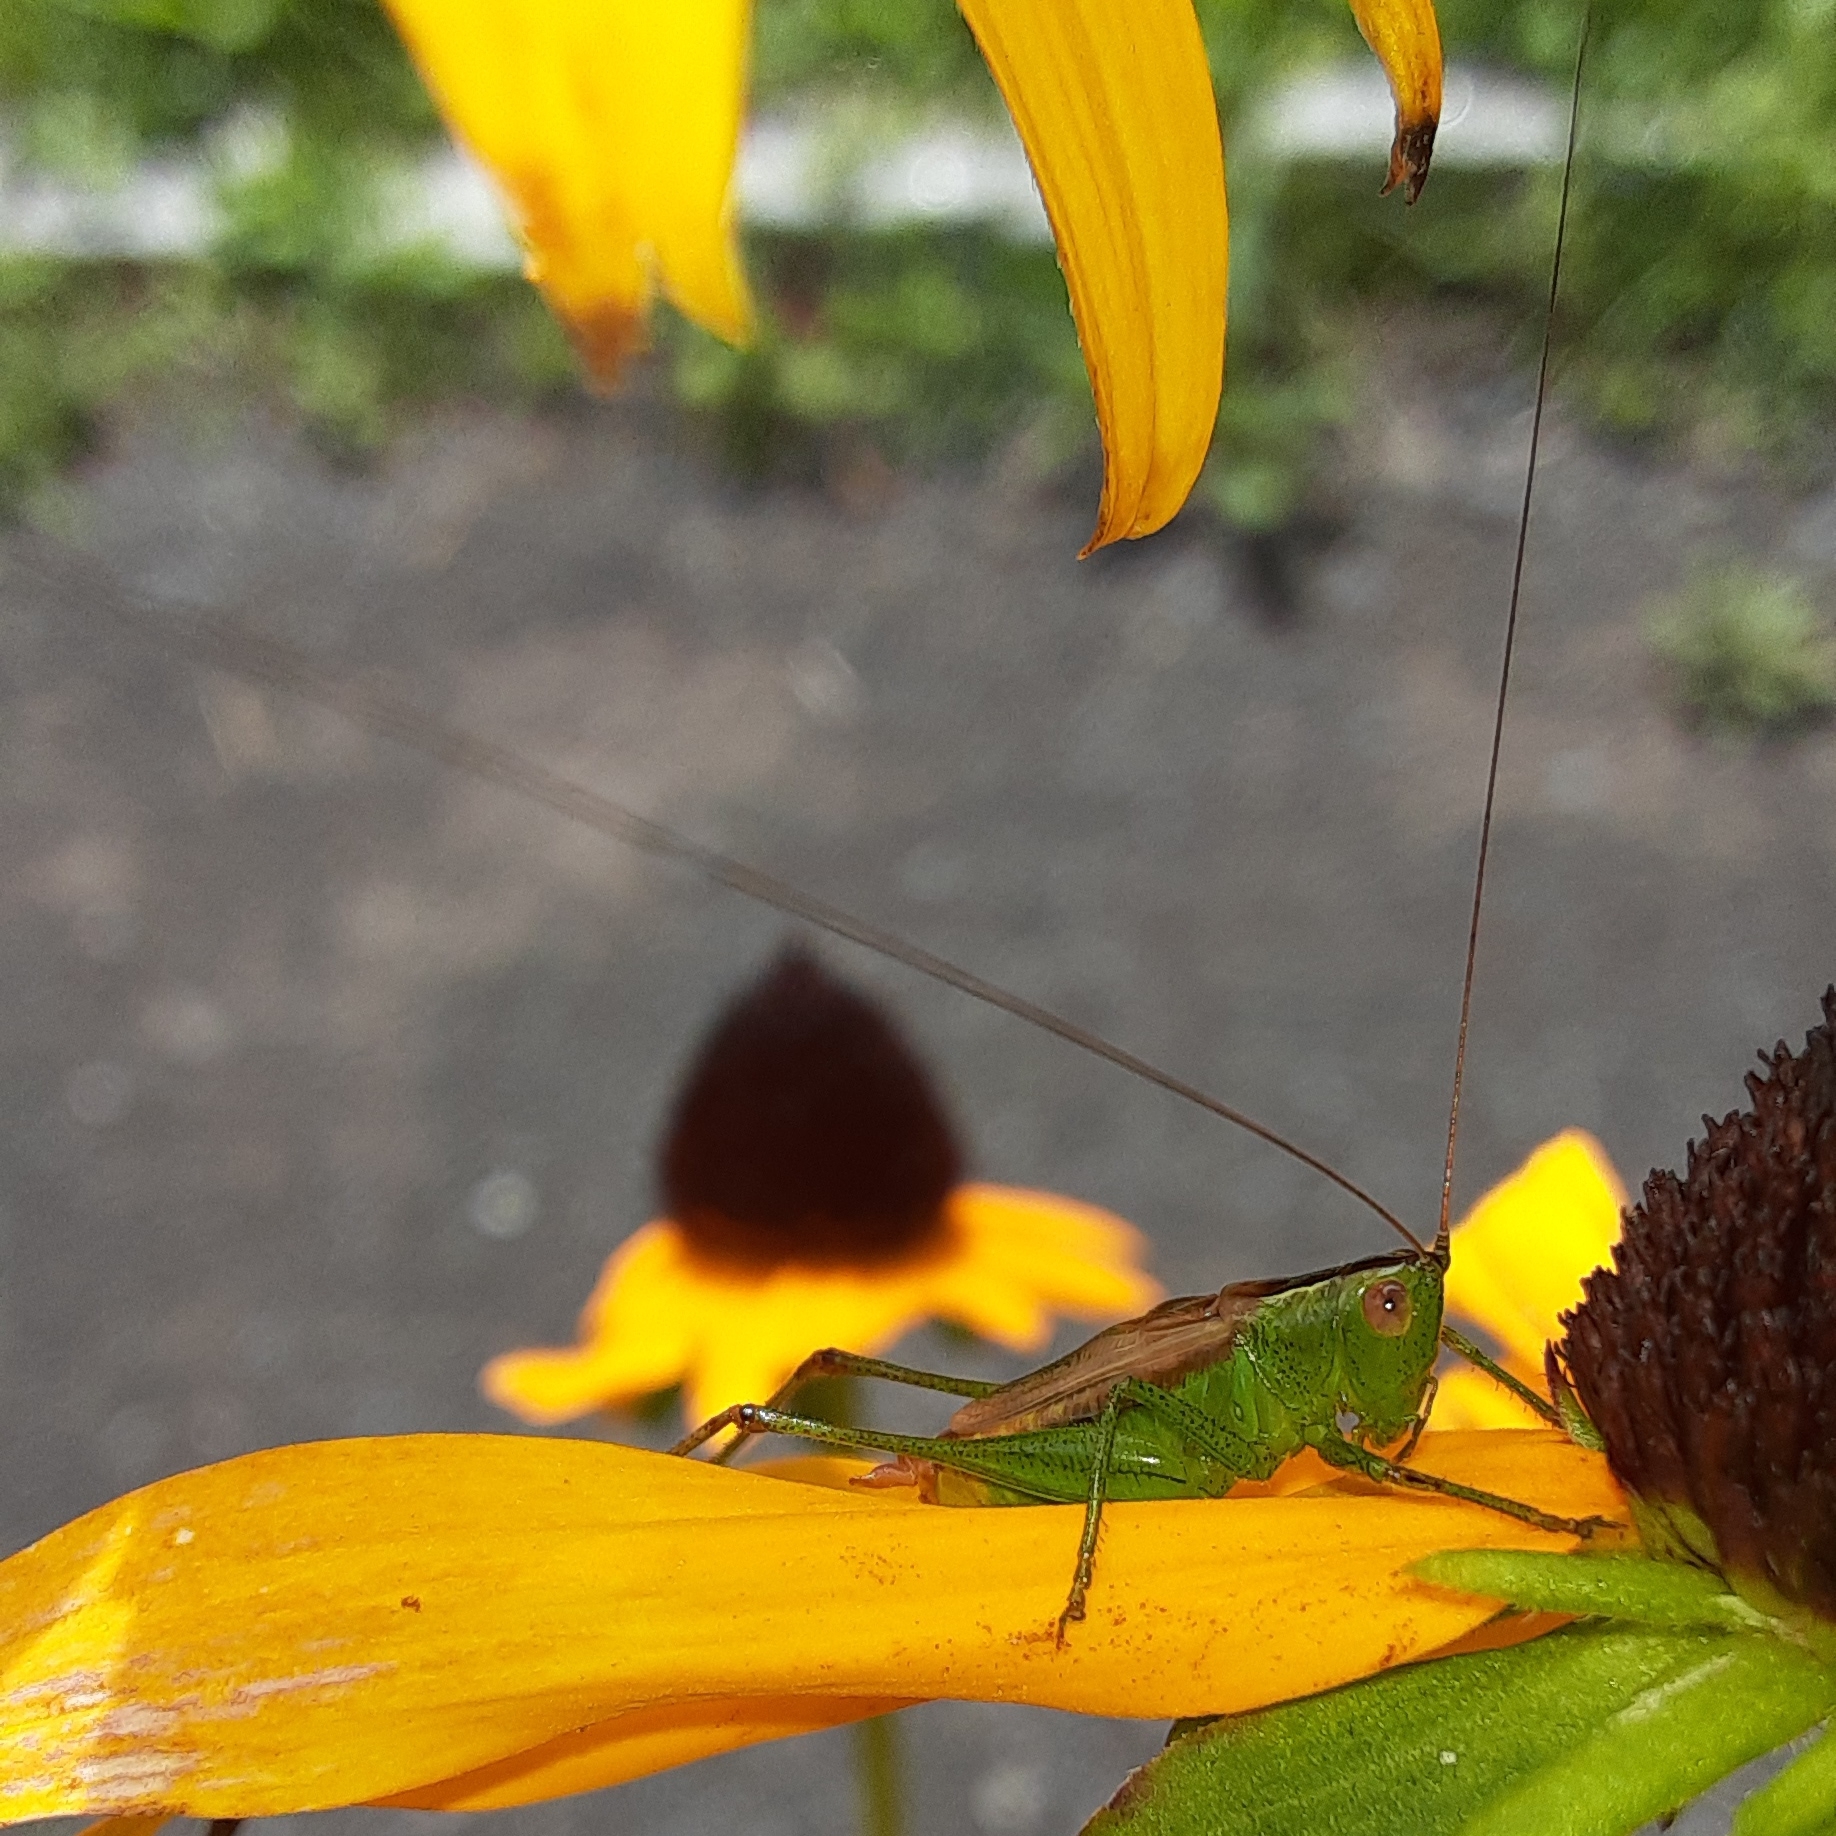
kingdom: Animalia
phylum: Arthropoda
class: Insecta
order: Orthoptera
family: Tettigoniidae
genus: Conocephalus
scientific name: Conocephalus brevipennis
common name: Short-winged meadow katydid
